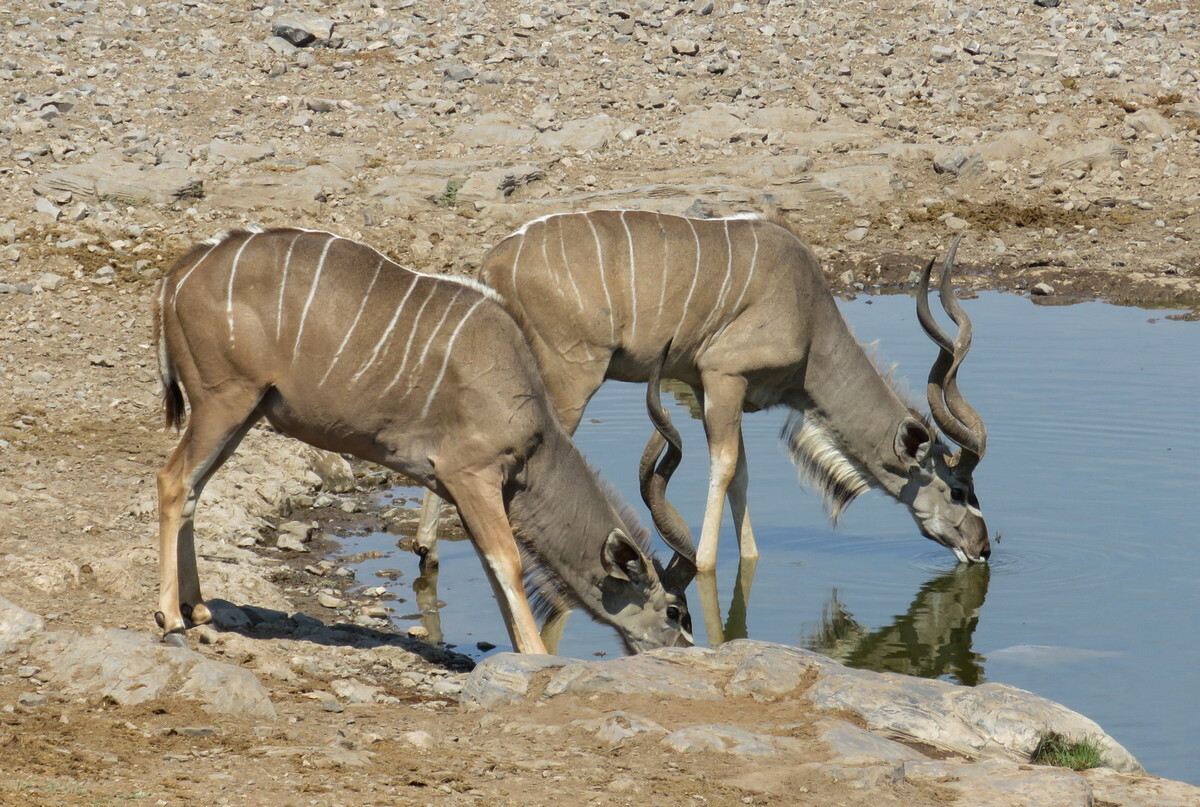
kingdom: Animalia
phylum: Chordata
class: Mammalia
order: Artiodactyla
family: Bovidae
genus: Tragelaphus
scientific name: Tragelaphus strepsiceros
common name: Greater kudu
